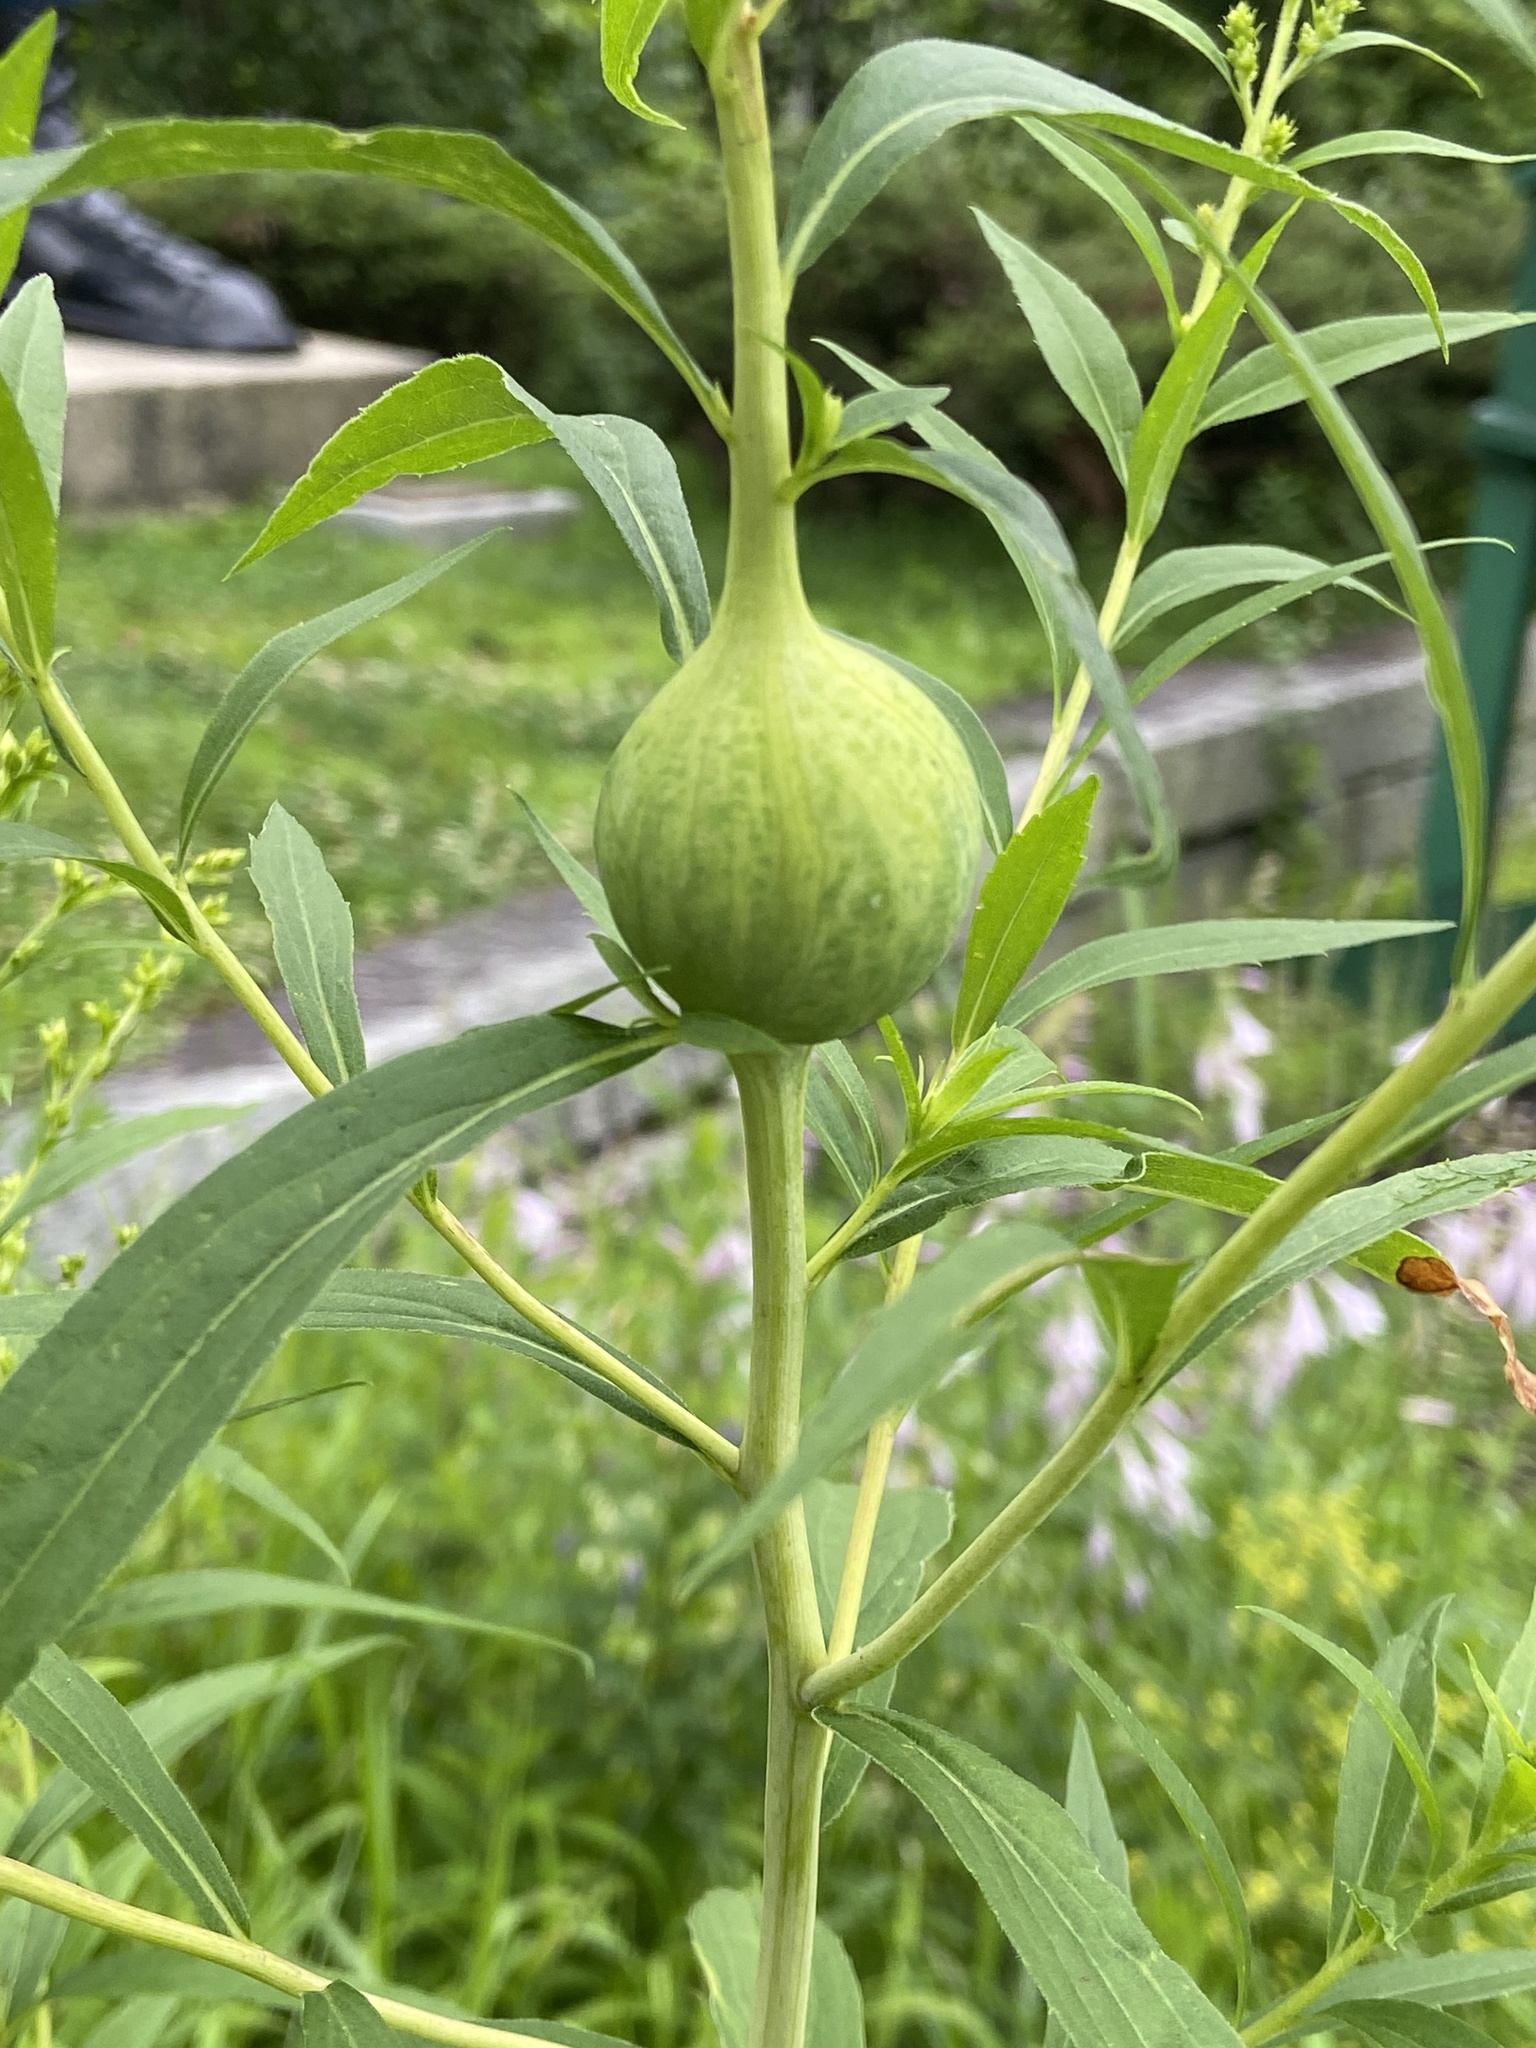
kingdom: Animalia
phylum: Arthropoda
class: Insecta
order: Diptera
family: Tephritidae
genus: Eurosta
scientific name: Eurosta solidaginis
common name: Goldenrod gall fly
